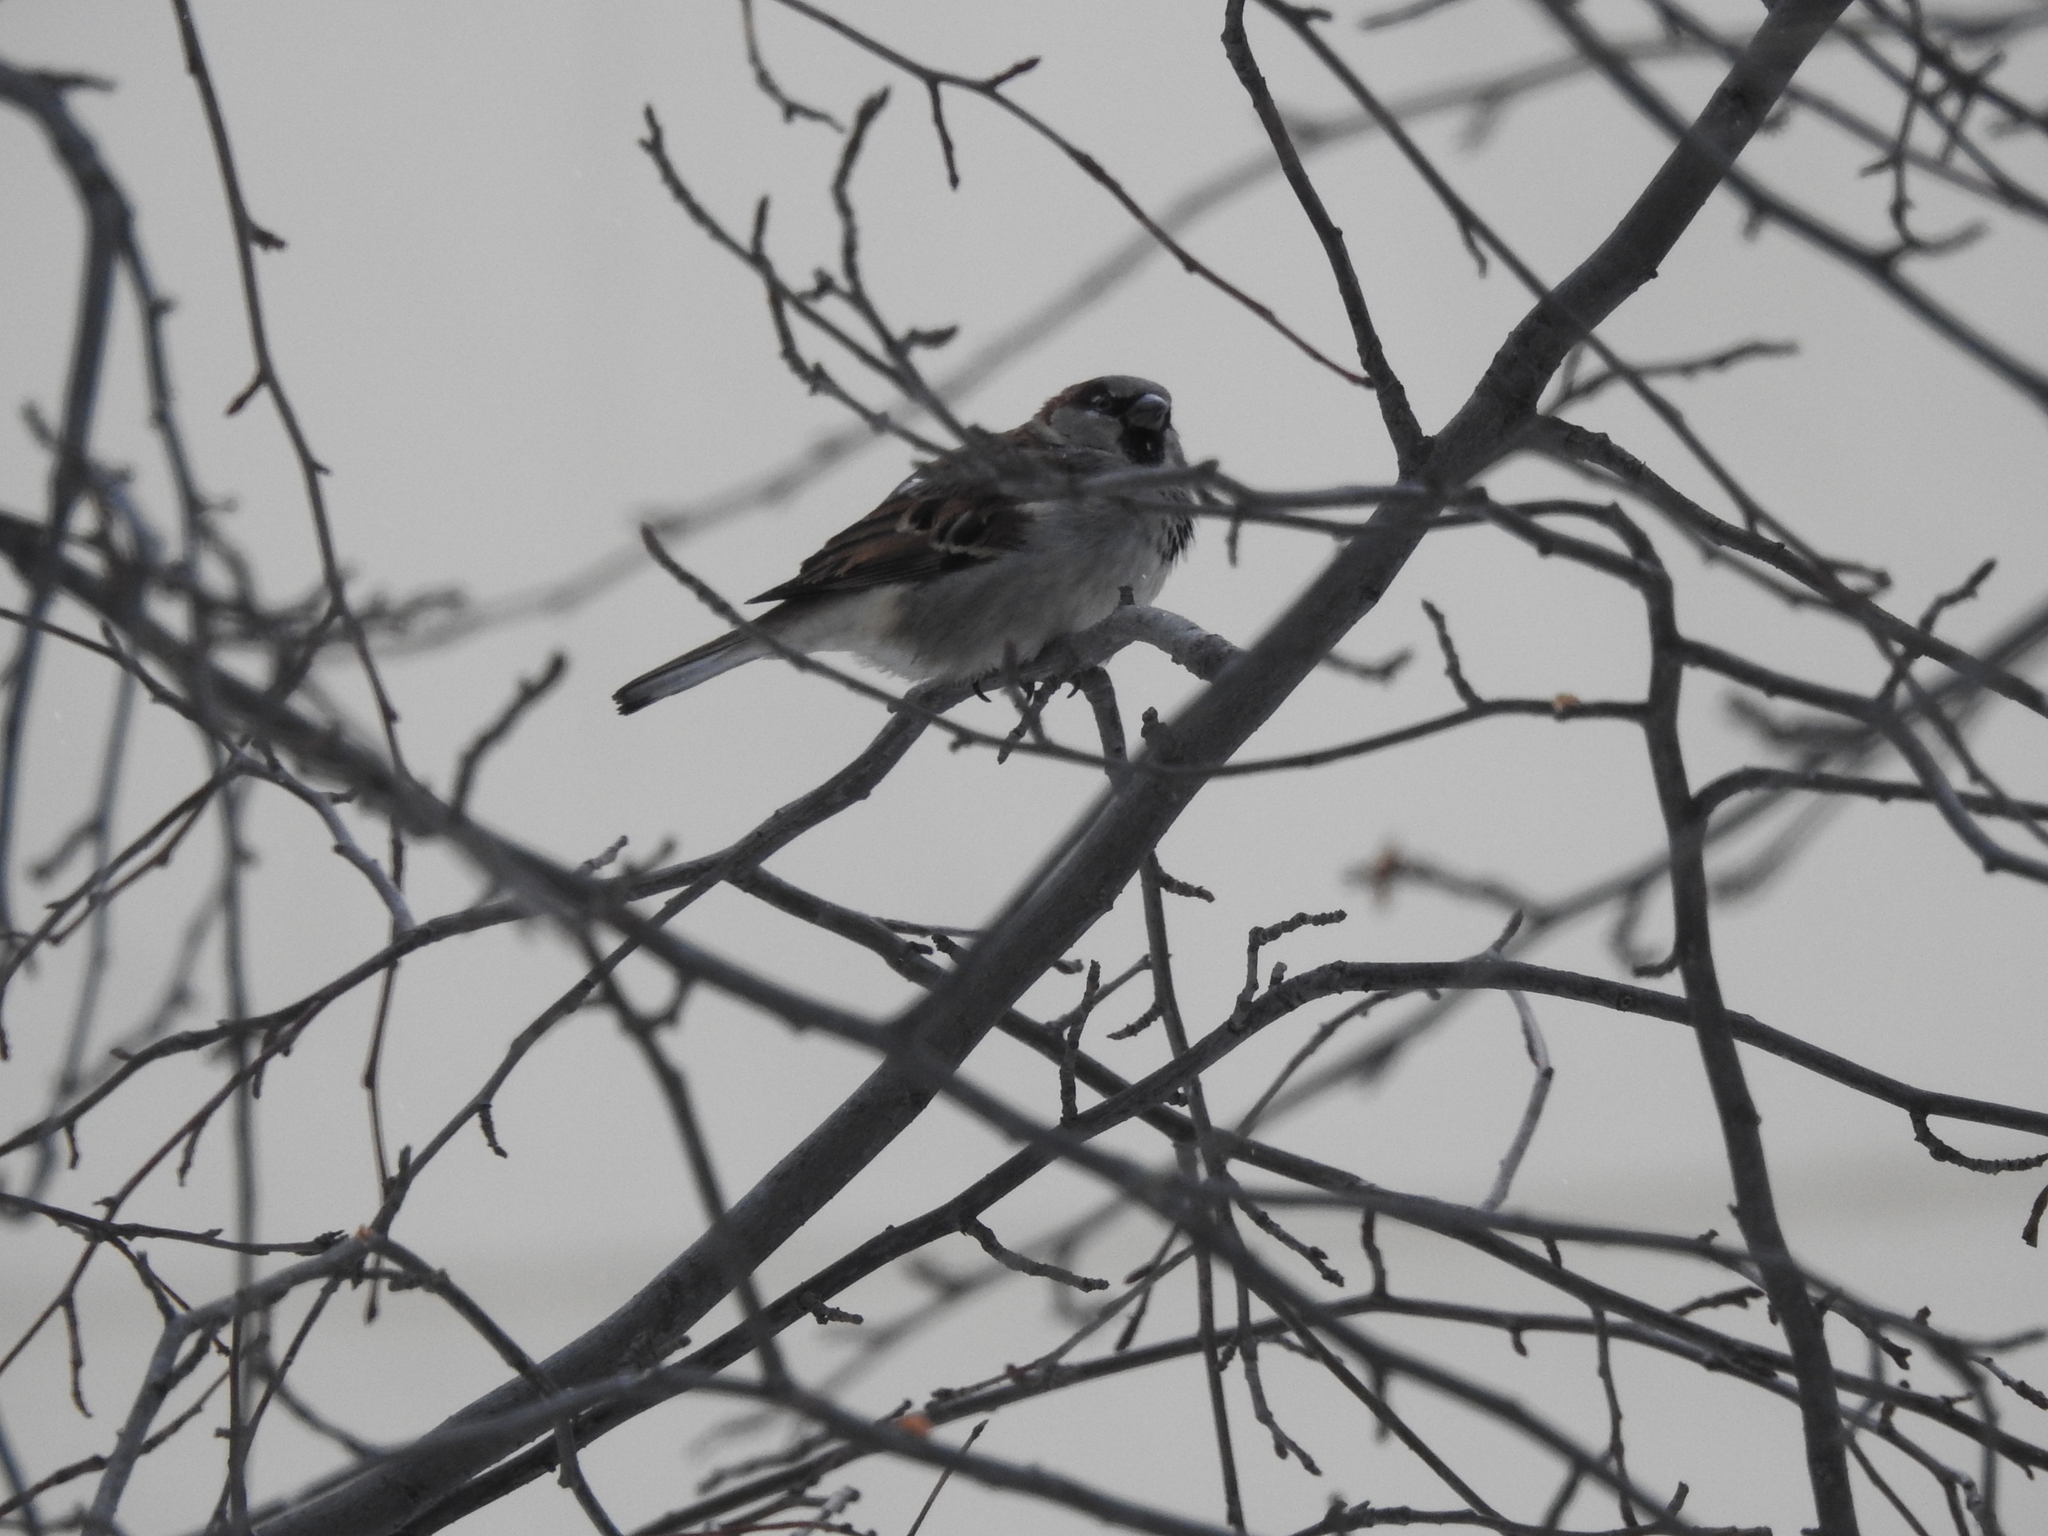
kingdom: Animalia
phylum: Chordata
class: Aves
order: Passeriformes
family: Passeridae
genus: Passer
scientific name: Passer domesticus
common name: House sparrow
